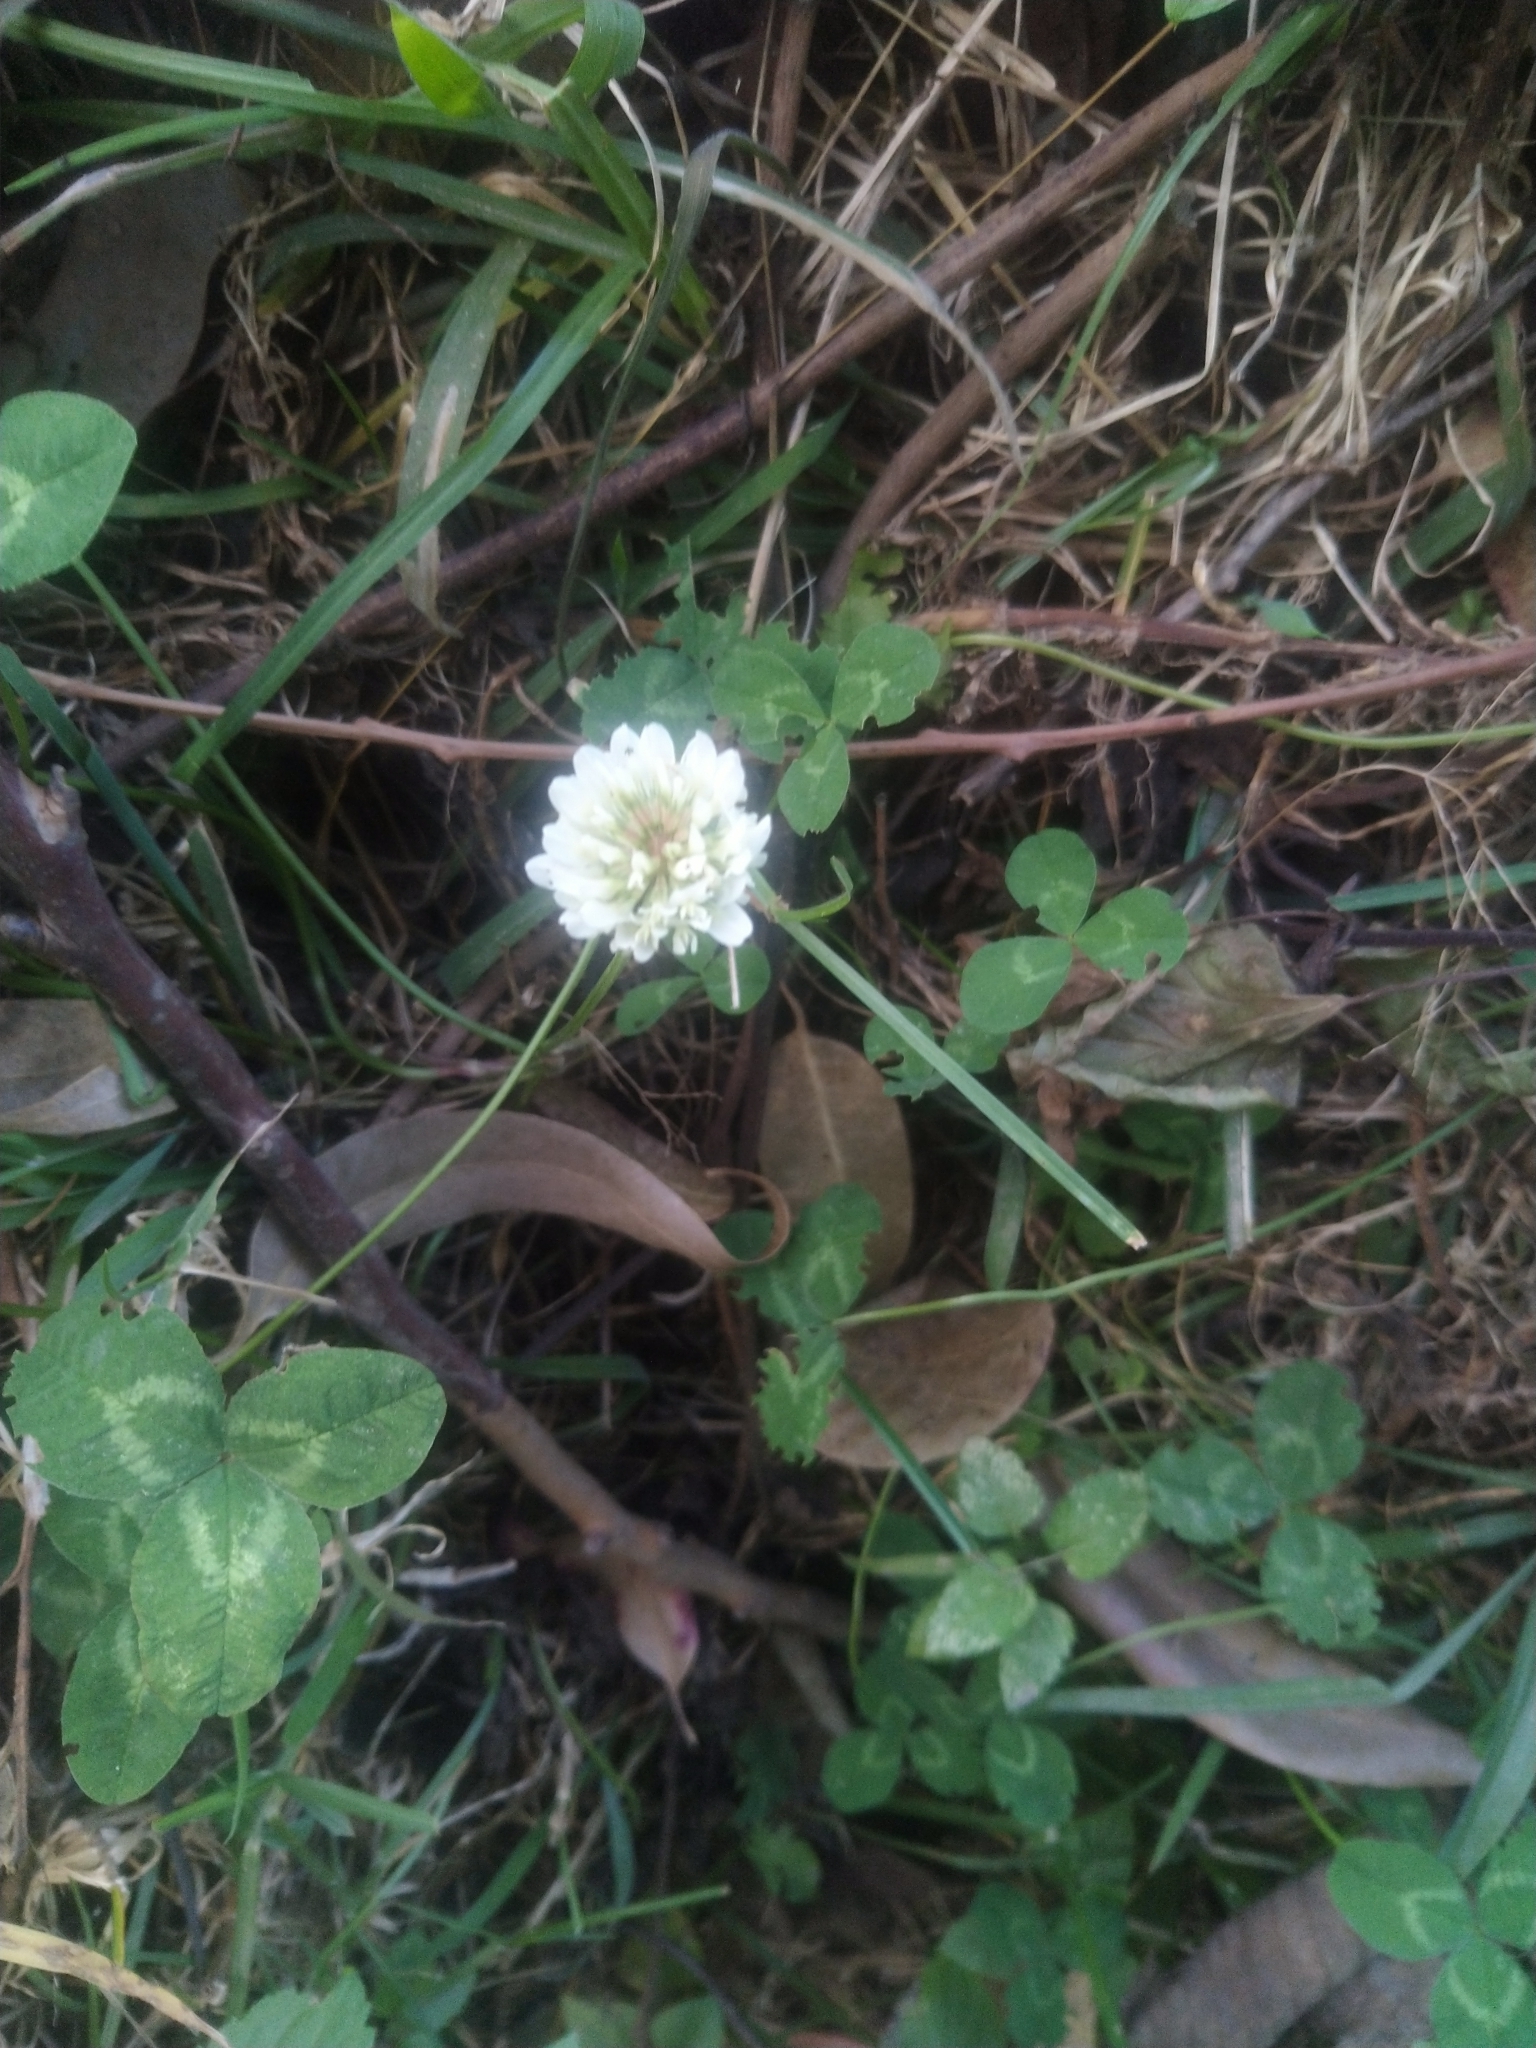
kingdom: Plantae
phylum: Tracheophyta
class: Magnoliopsida
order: Fabales
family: Fabaceae
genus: Trifolium
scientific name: Trifolium repens
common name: White clover
